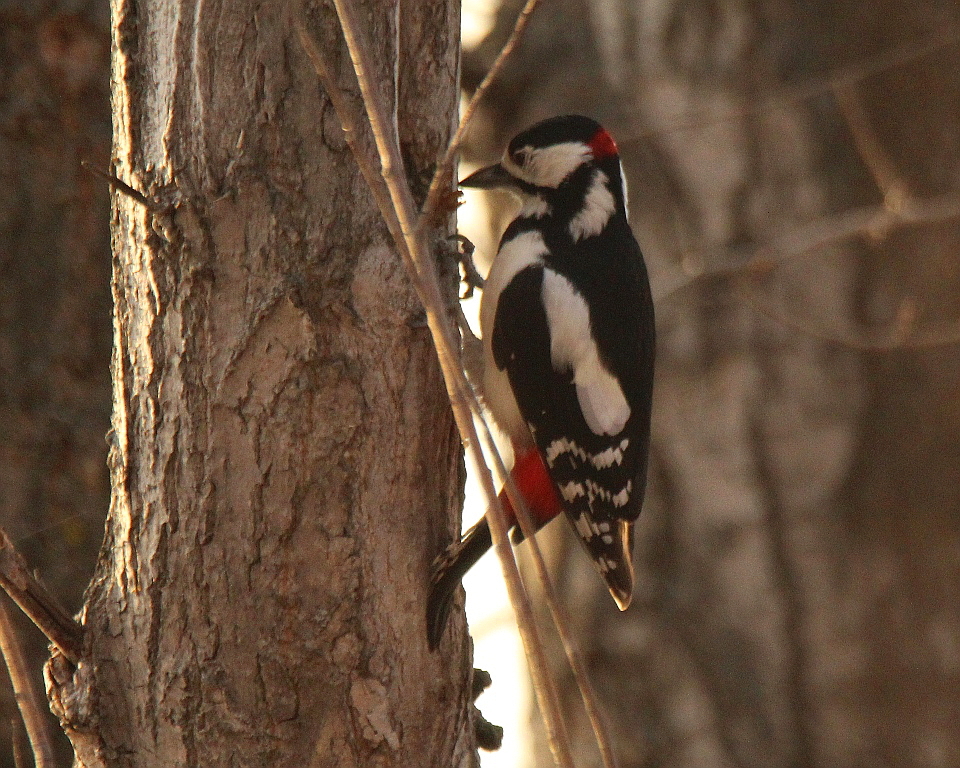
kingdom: Animalia
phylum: Chordata
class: Aves
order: Piciformes
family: Picidae
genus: Dendrocopos
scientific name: Dendrocopos major
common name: Great spotted woodpecker
